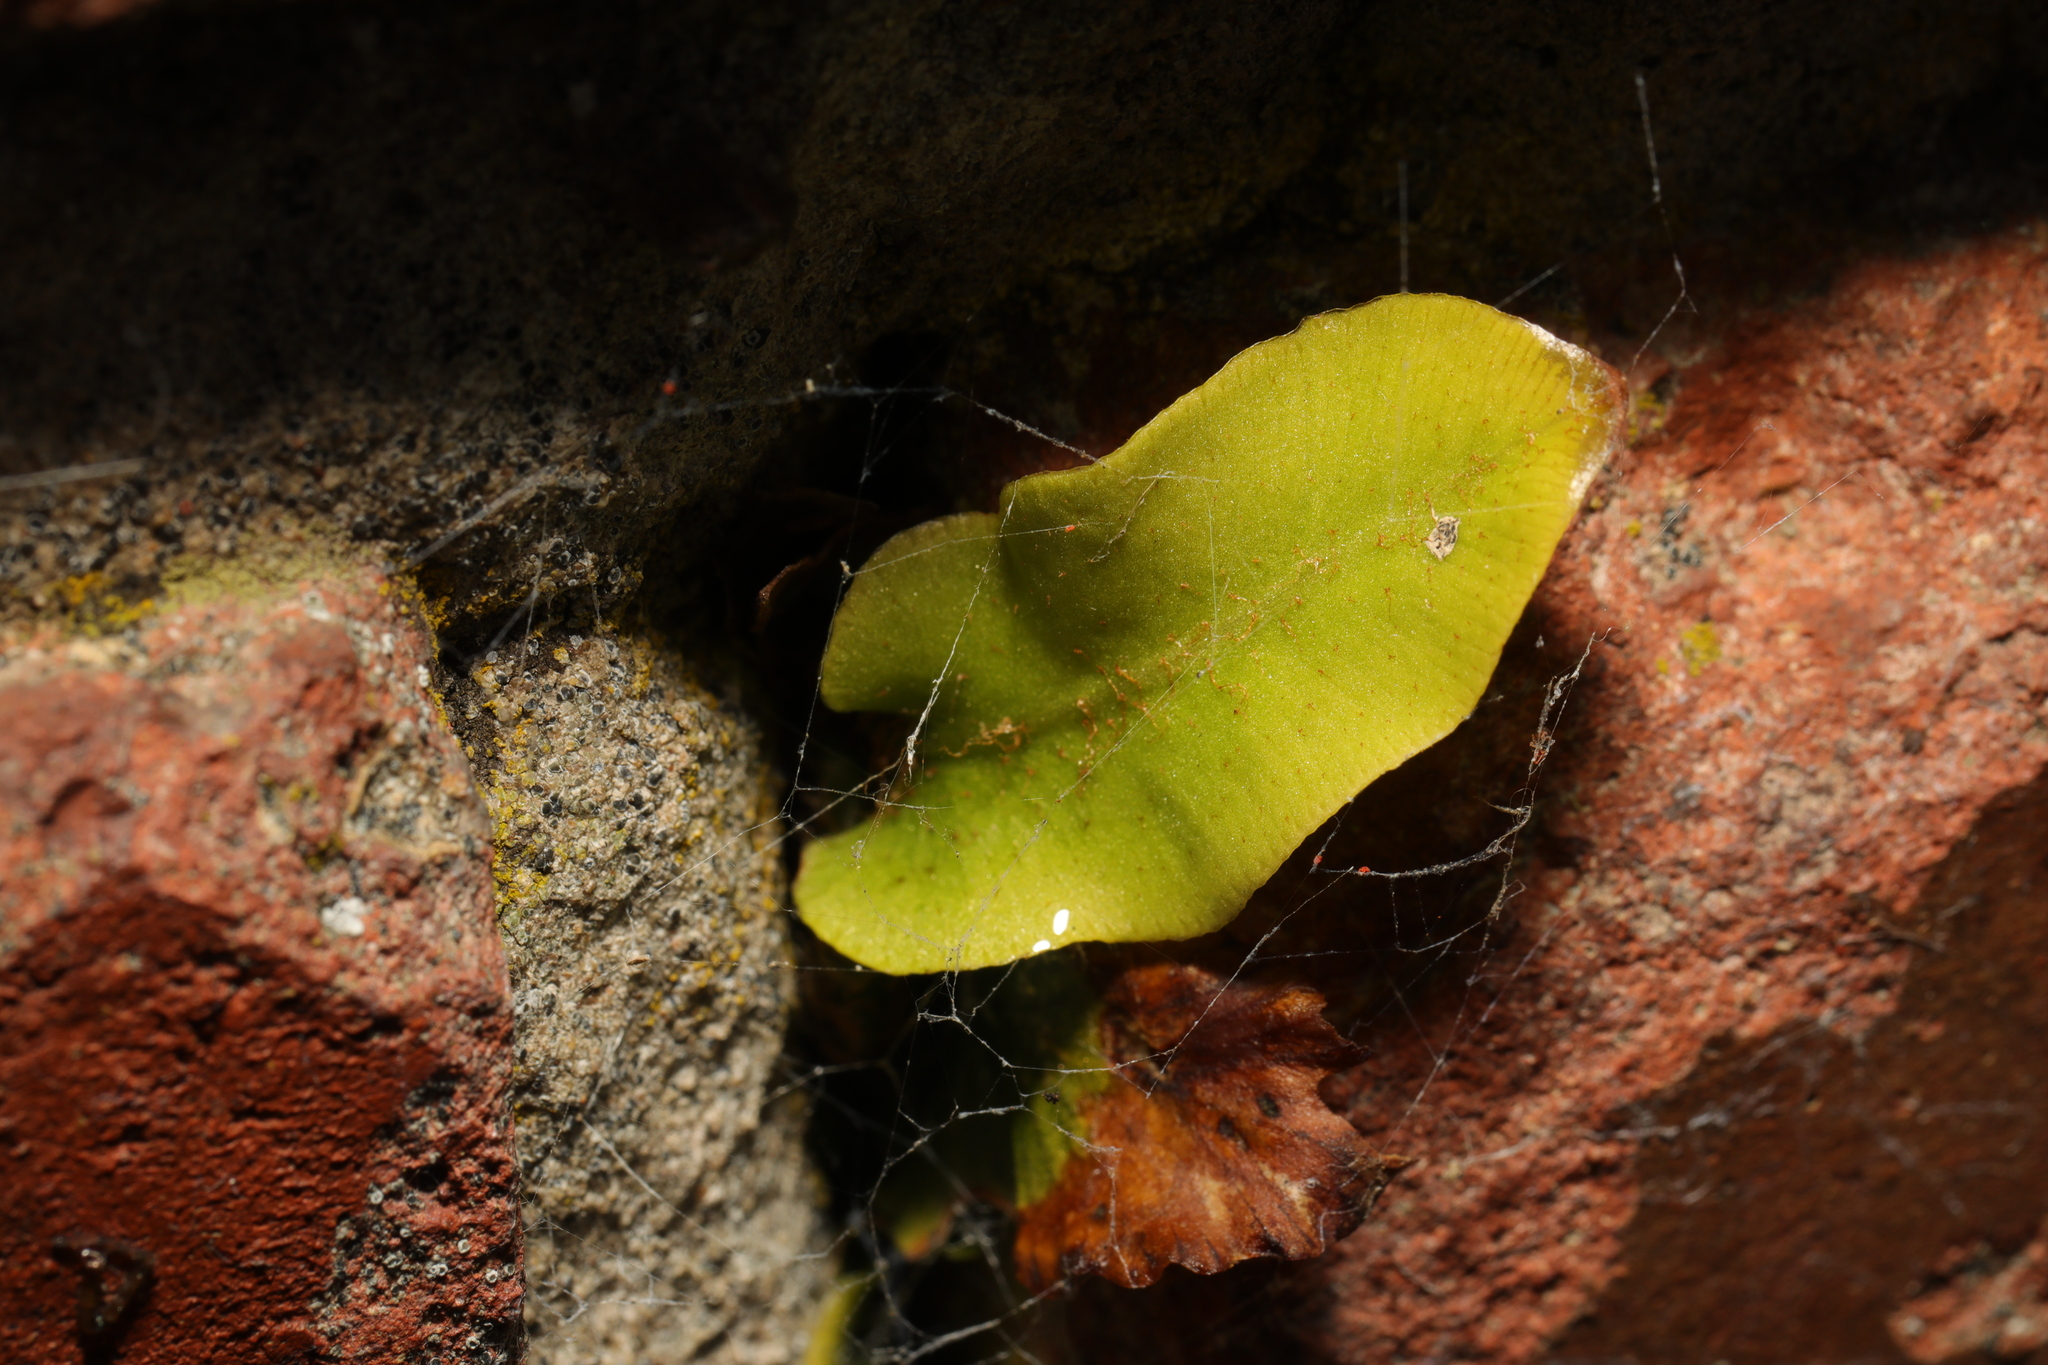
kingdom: Plantae
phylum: Tracheophyta
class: Polypodiopsida
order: Polypodiales
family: Aspleniaceae
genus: Asplenium
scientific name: Asplenium scolopendrium
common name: Hart's-tongue fern
